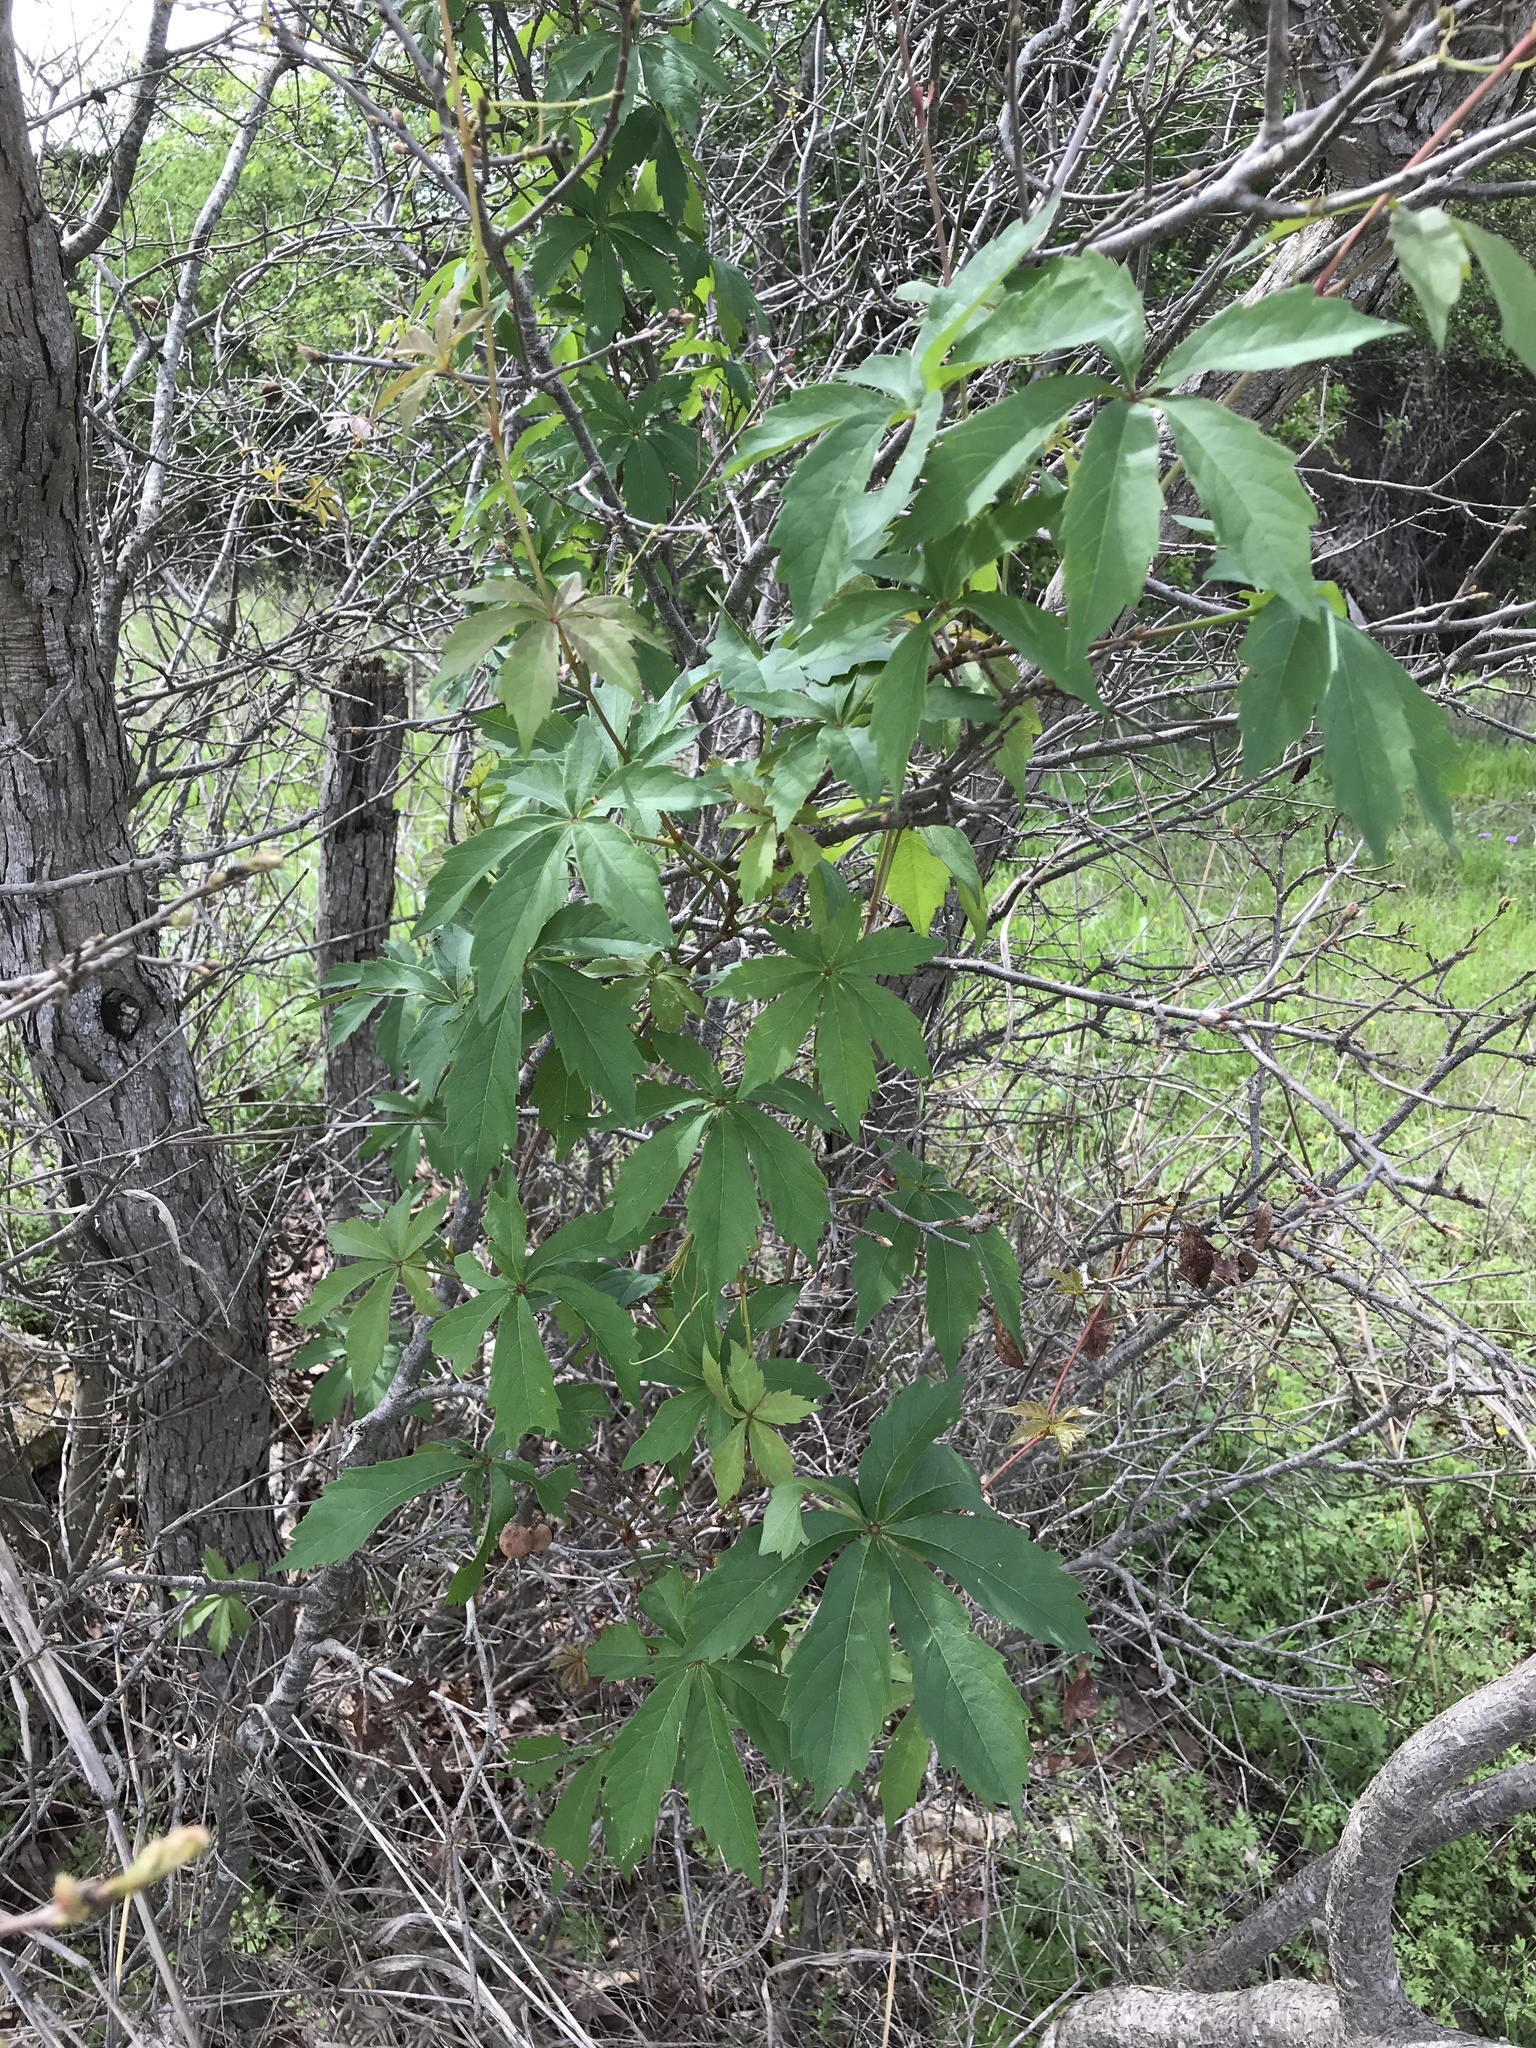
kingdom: Plantae
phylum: Tracheophyta
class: Magnoliopsida
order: Vitales
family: Vitaceae
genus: Parthenocissus
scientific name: Parthenocissus heptaphylla
